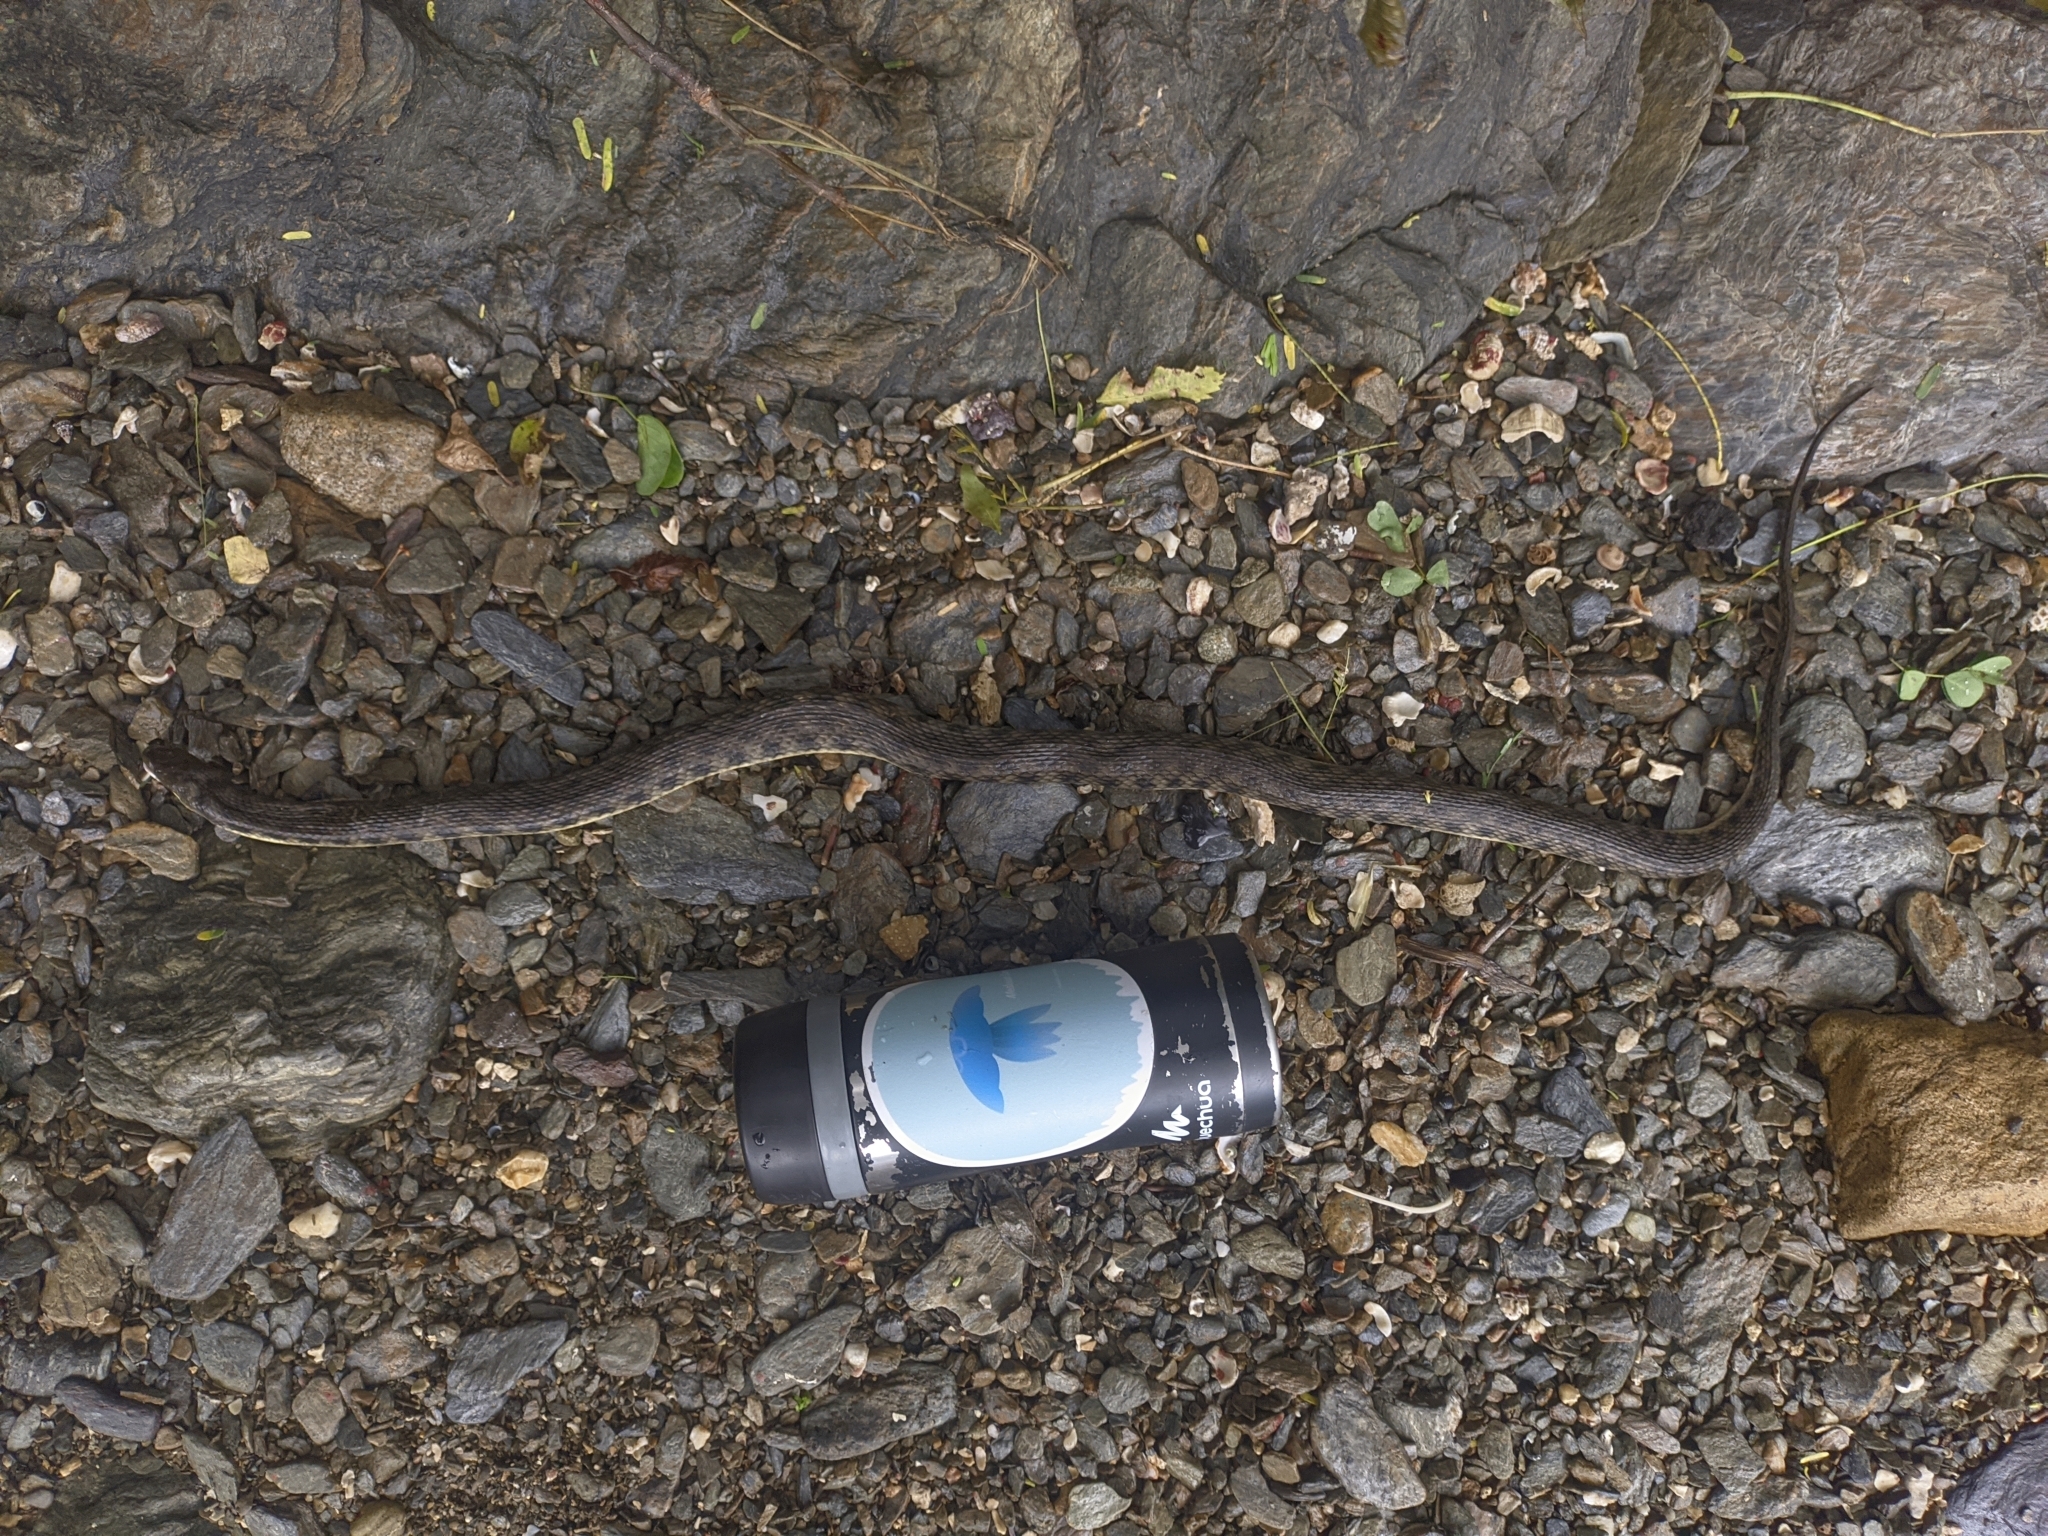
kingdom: Animalia
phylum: Chordata
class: Squamata
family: Colubridae
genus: Helicops
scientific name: Helicops danieli
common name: Daniel's keelback
